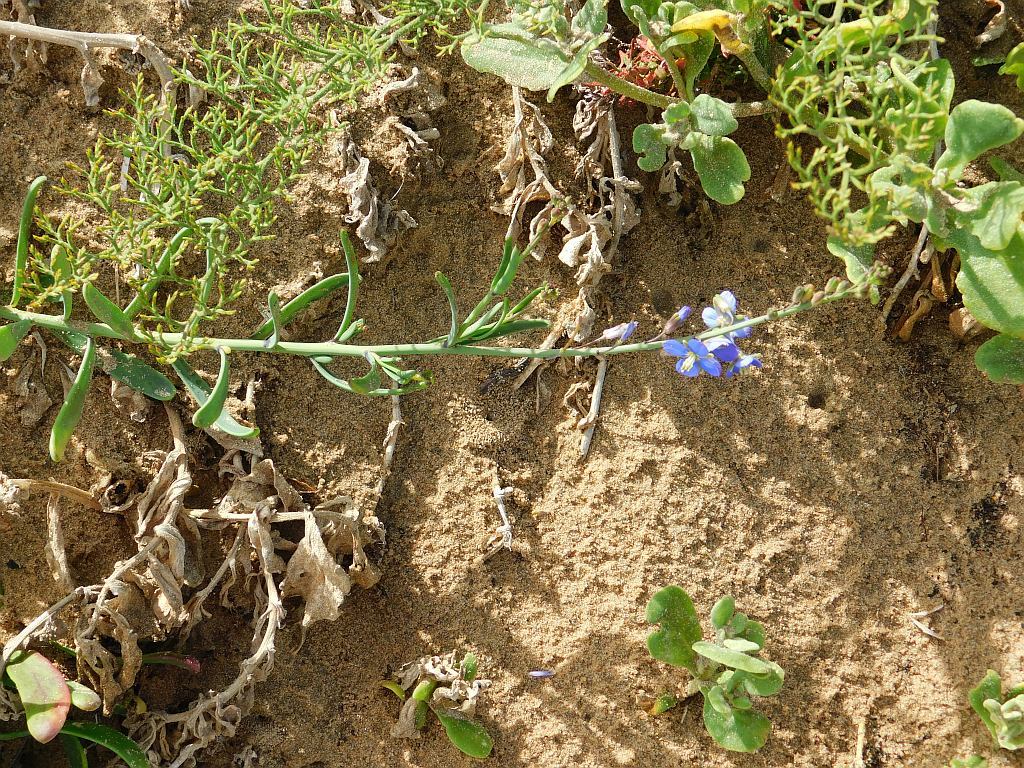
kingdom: Plantae
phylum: Tracheophyta
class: Magnoliopsida
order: Brassicales
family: Brassicaceae
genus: Heliophila
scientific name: Heliophila linearis
